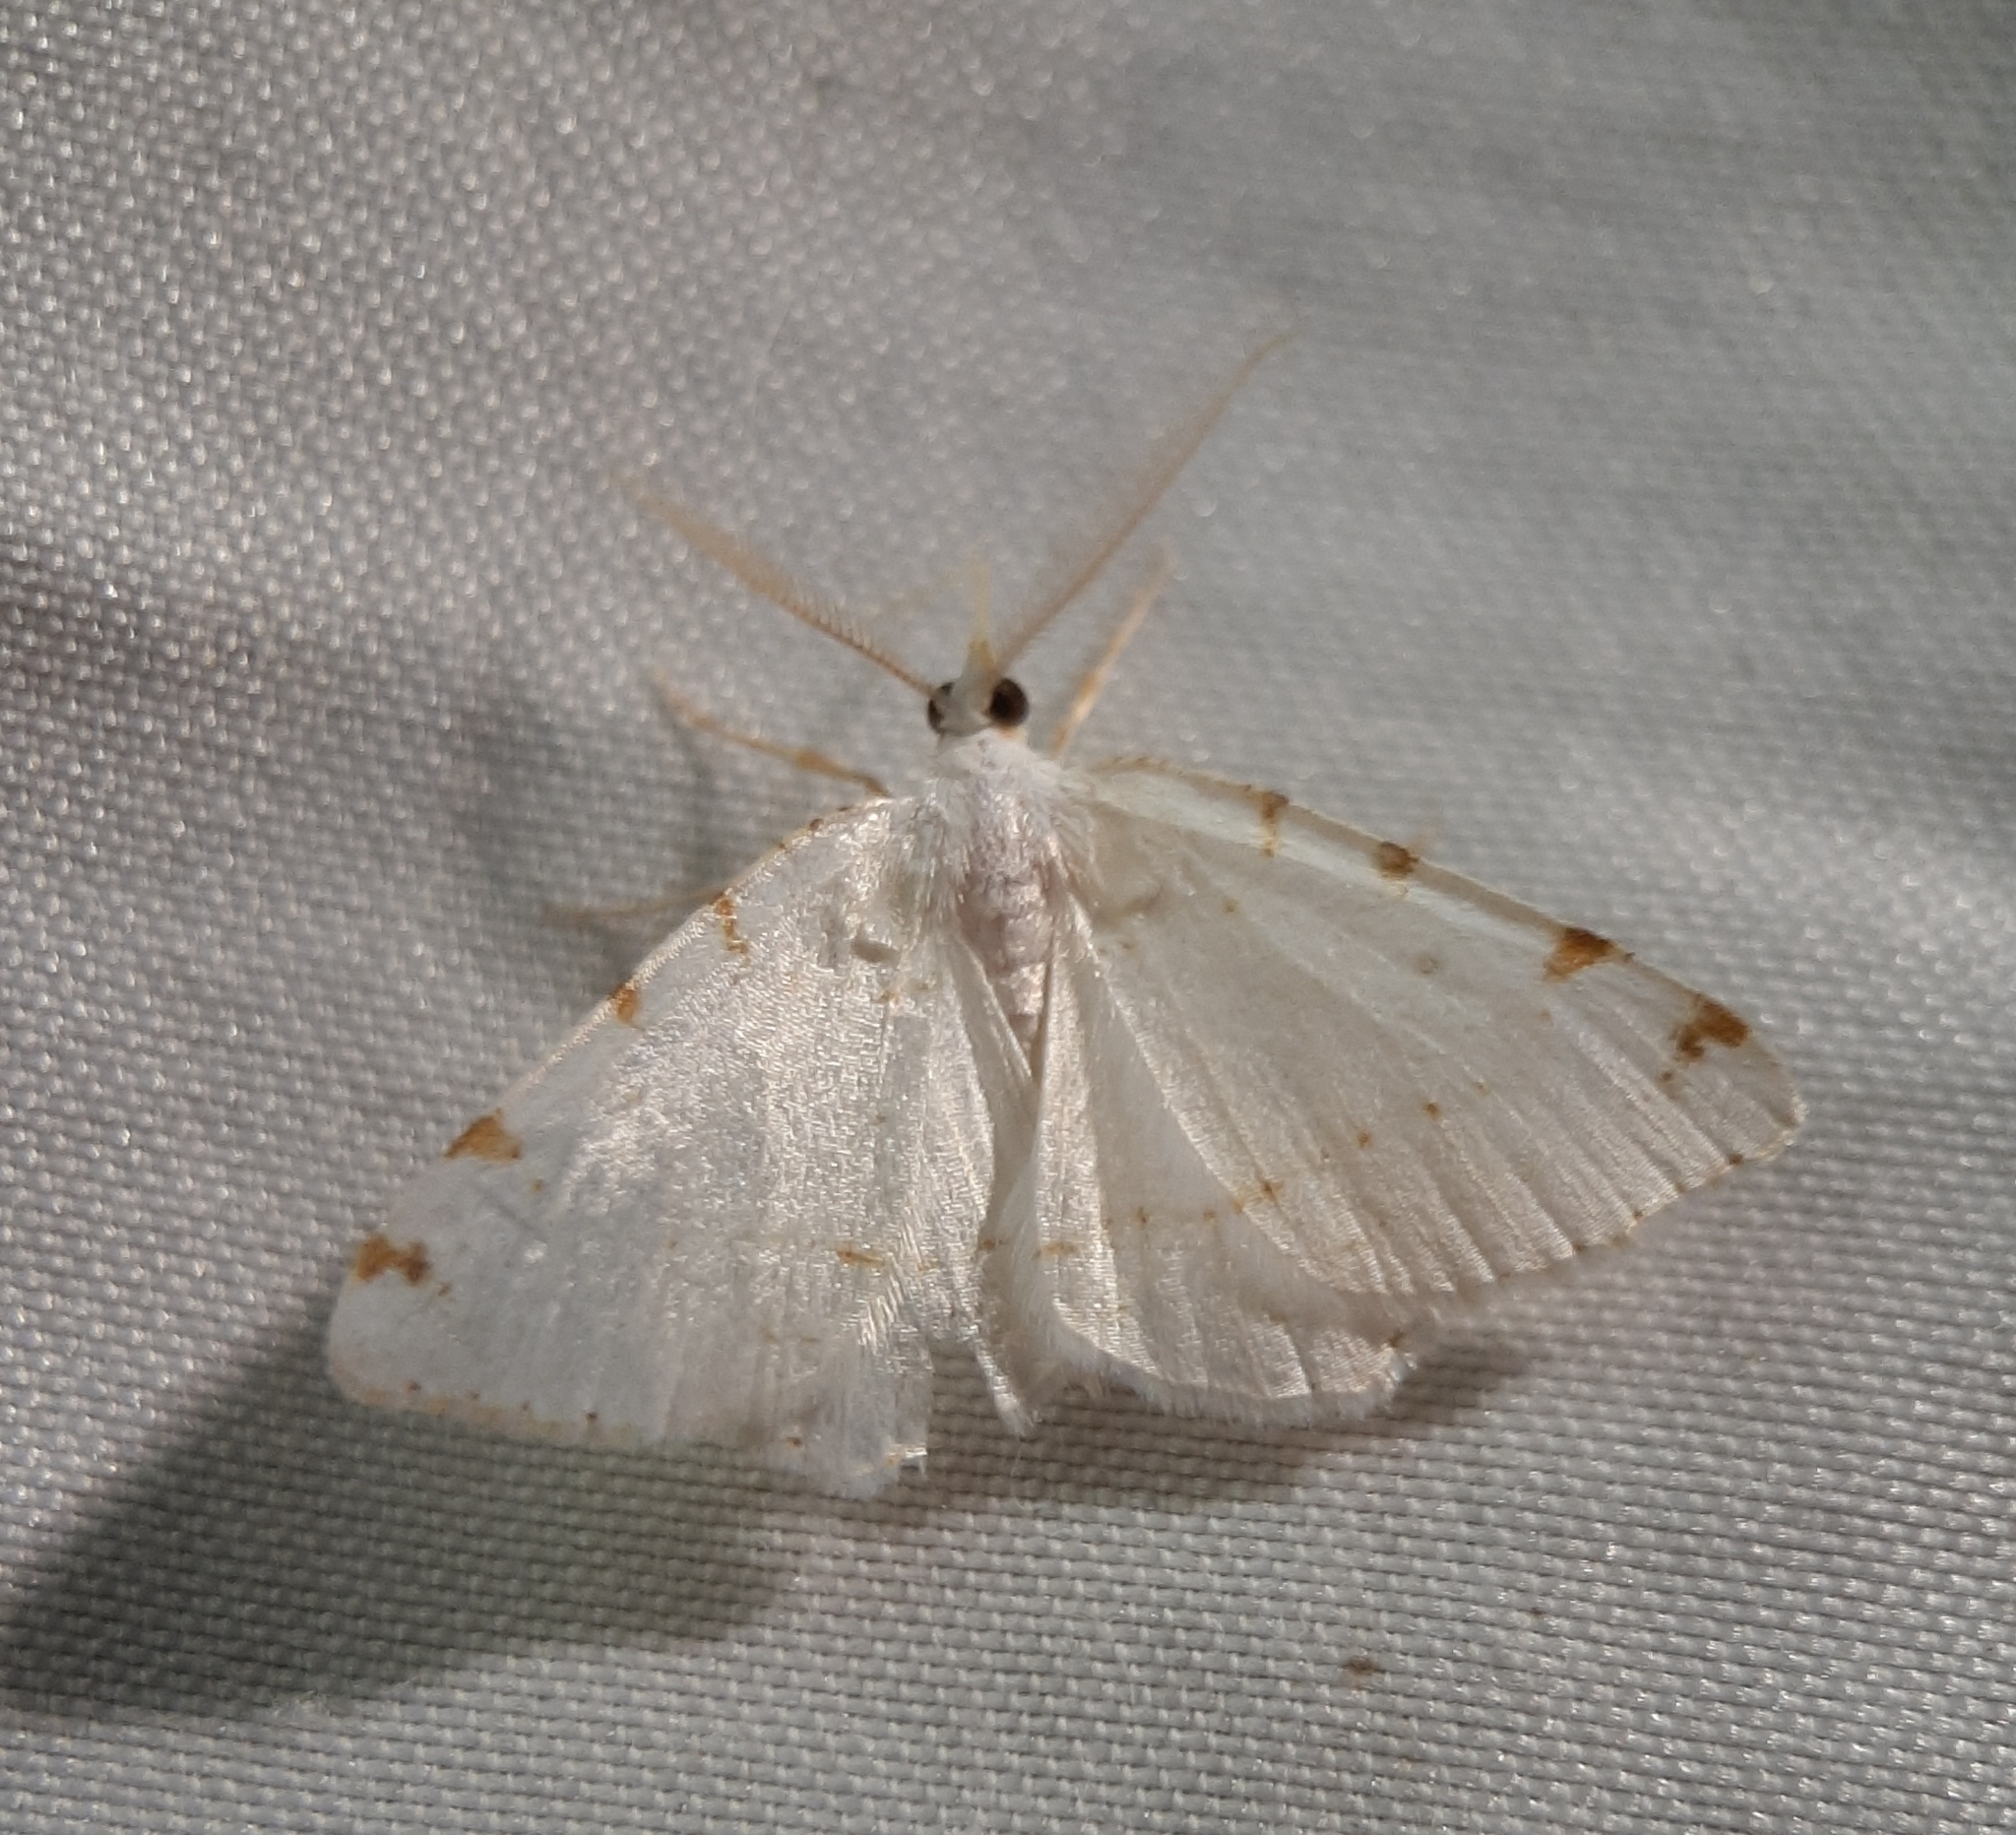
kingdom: Animalia
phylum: Arthropoda
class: Insecta
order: Lepidoptera
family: Geometridae
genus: Macaria
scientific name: Macaria pustularia
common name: Lesser maple spanworm moth
